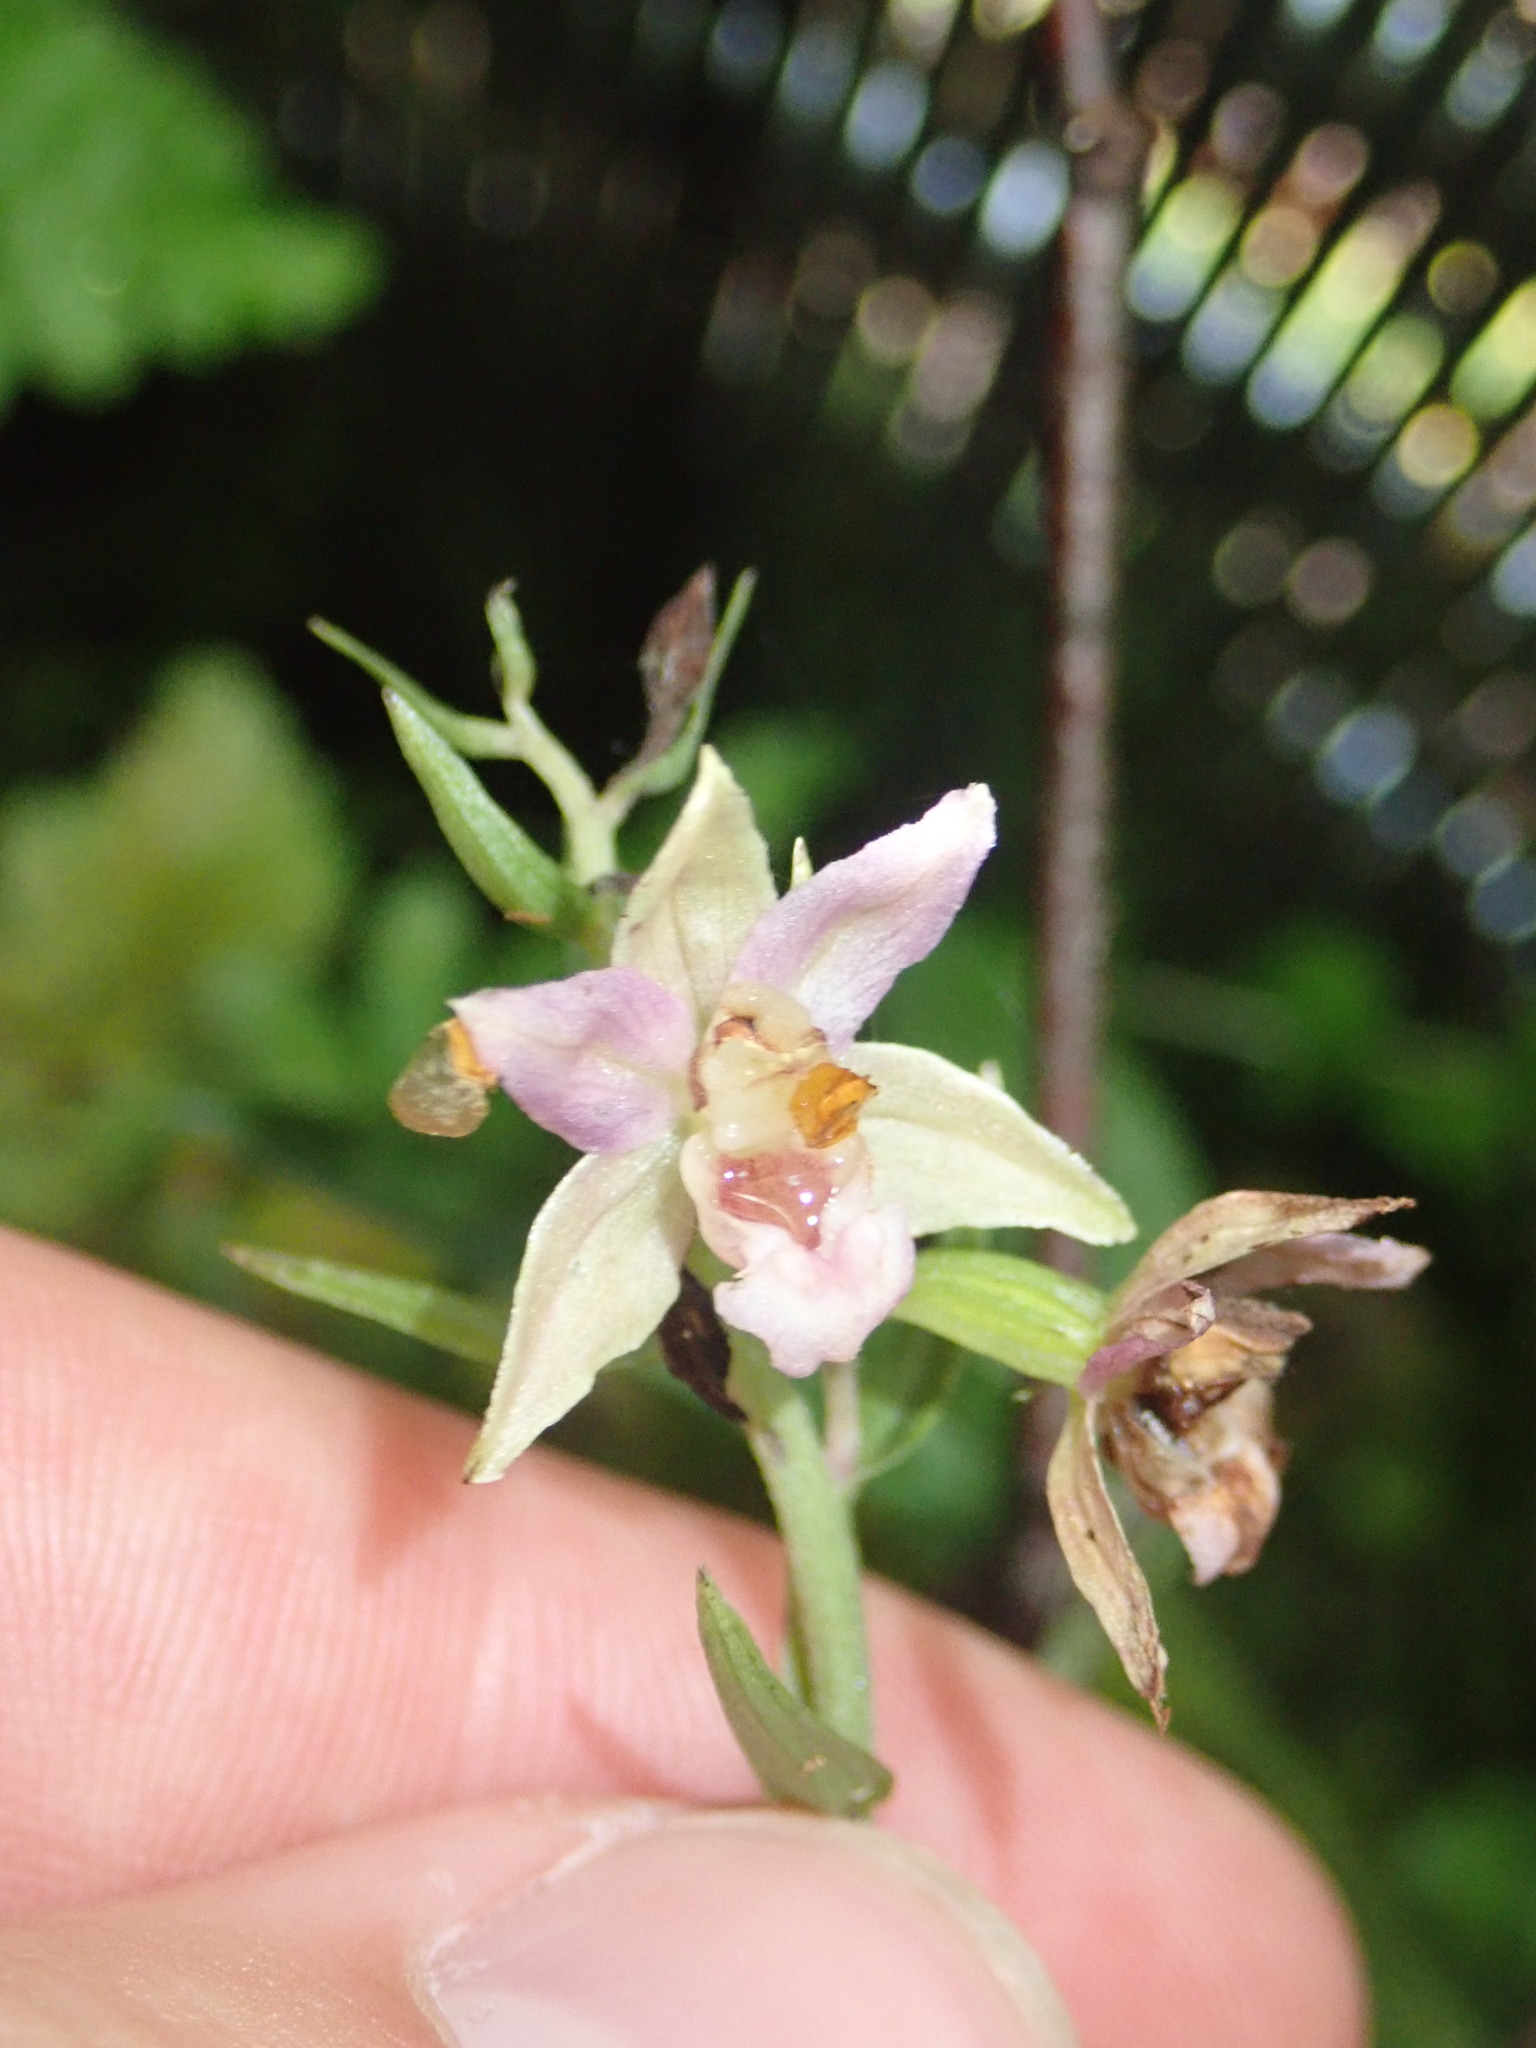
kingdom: Plantae
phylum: Tracheophyta
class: Liliopsida
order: Asparagales
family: Orchidaceae
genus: Epipactis
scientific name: Epipactis helleborine
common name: Broad-leaved helleborine
